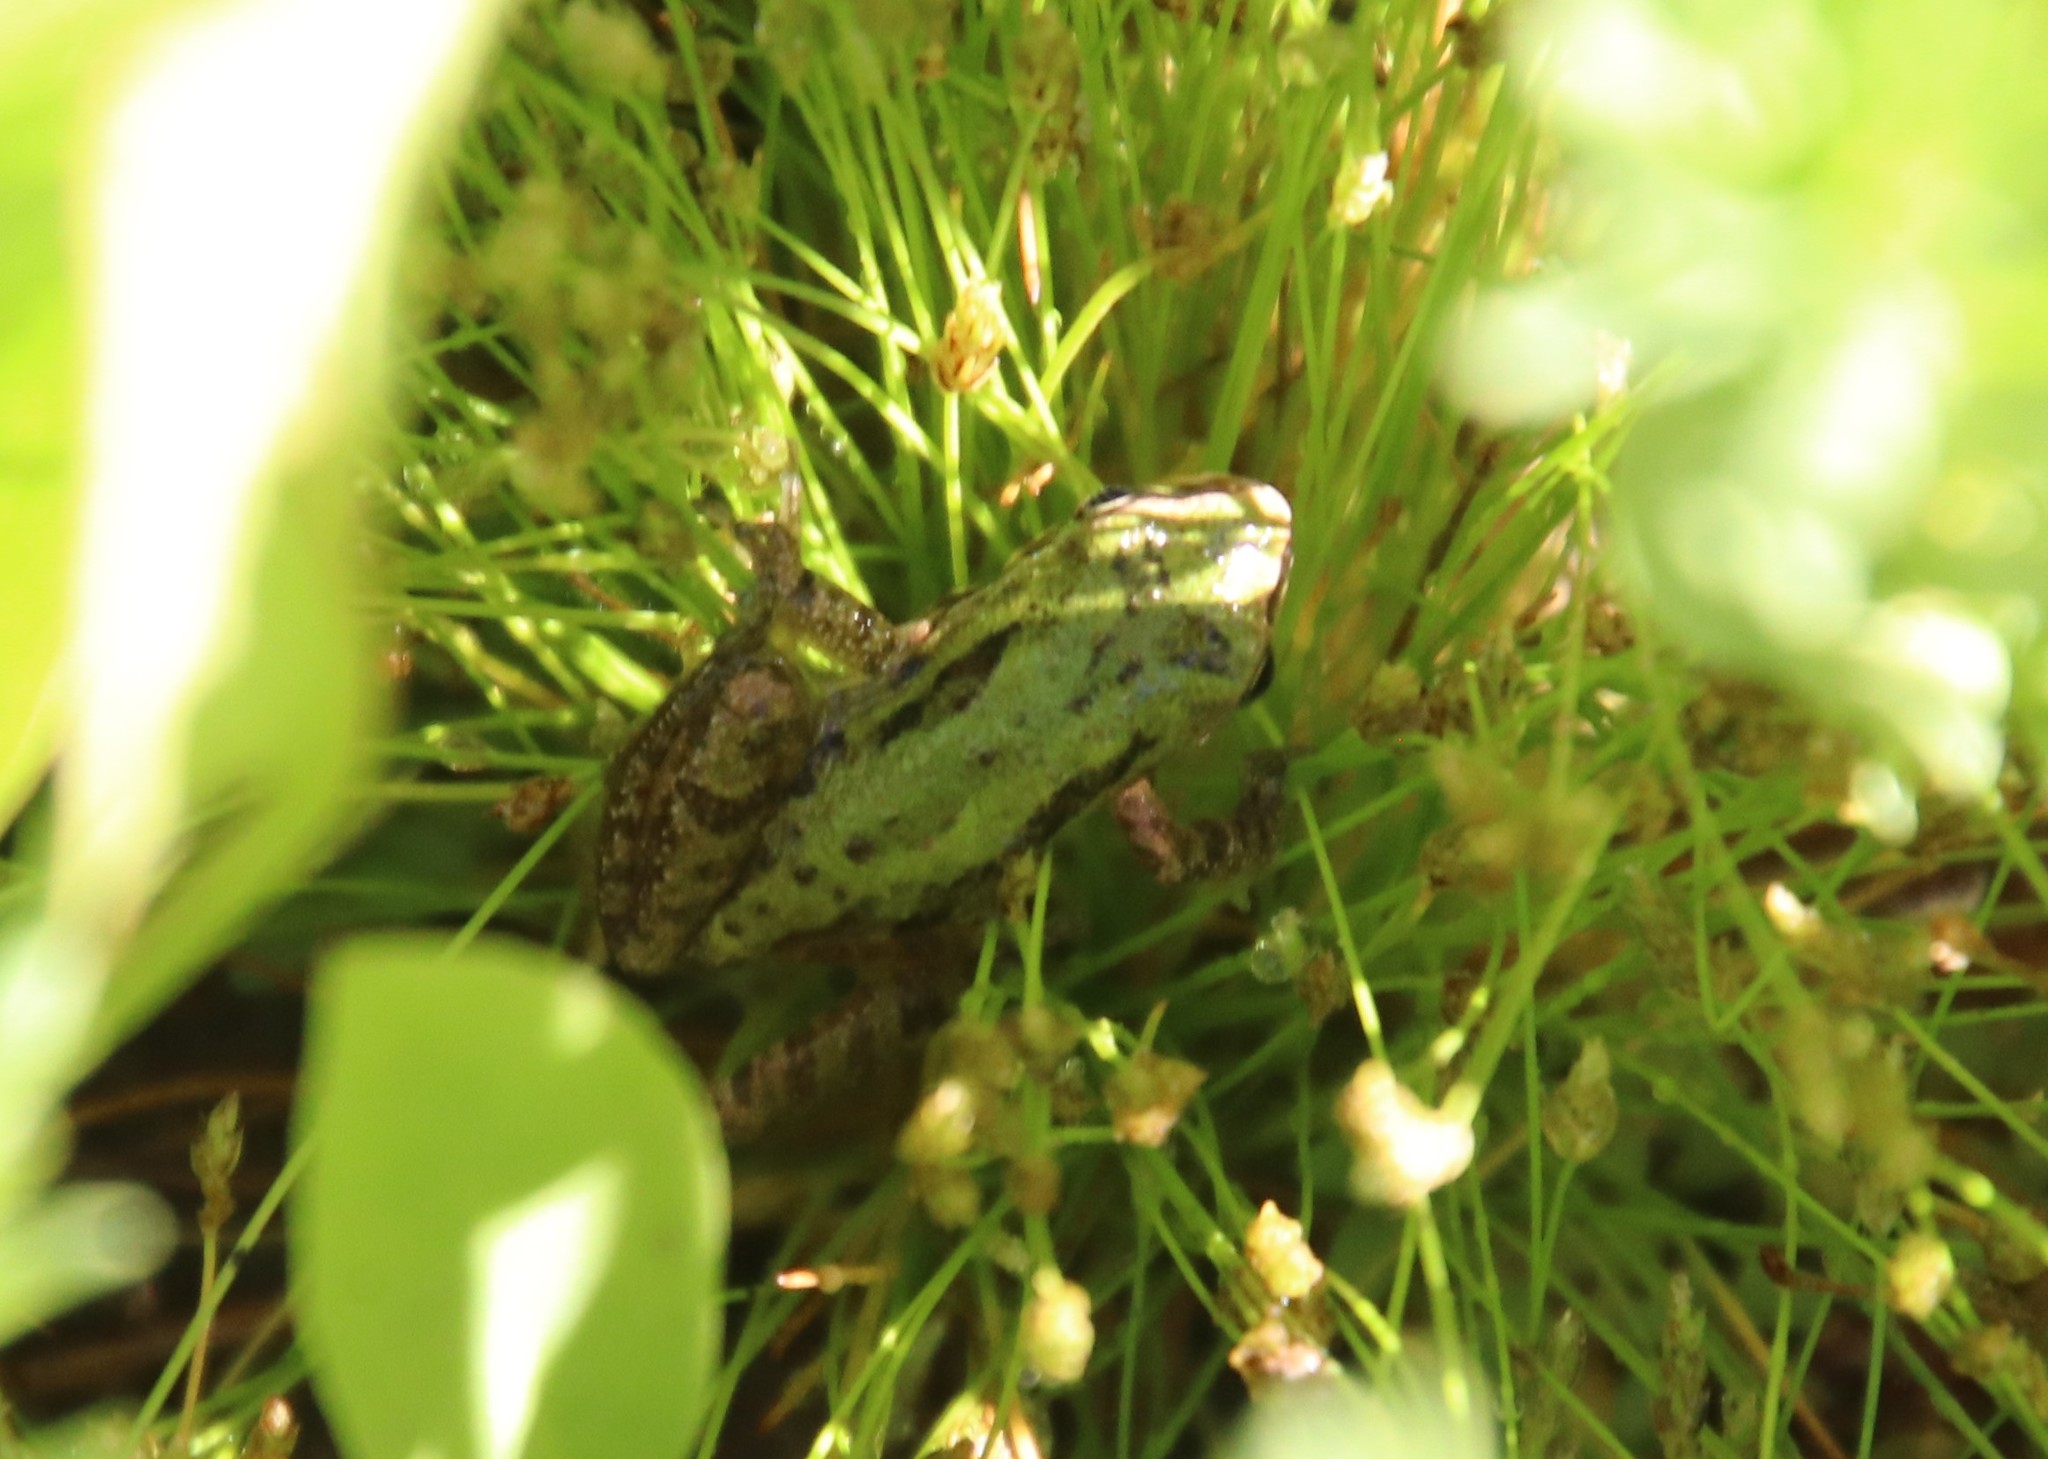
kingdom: Animalia
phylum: Chordata
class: Amphibia
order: Anura
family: Hylidae
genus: Pseudacris
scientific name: Pseudacris regilla
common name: Pacific chorus frog
